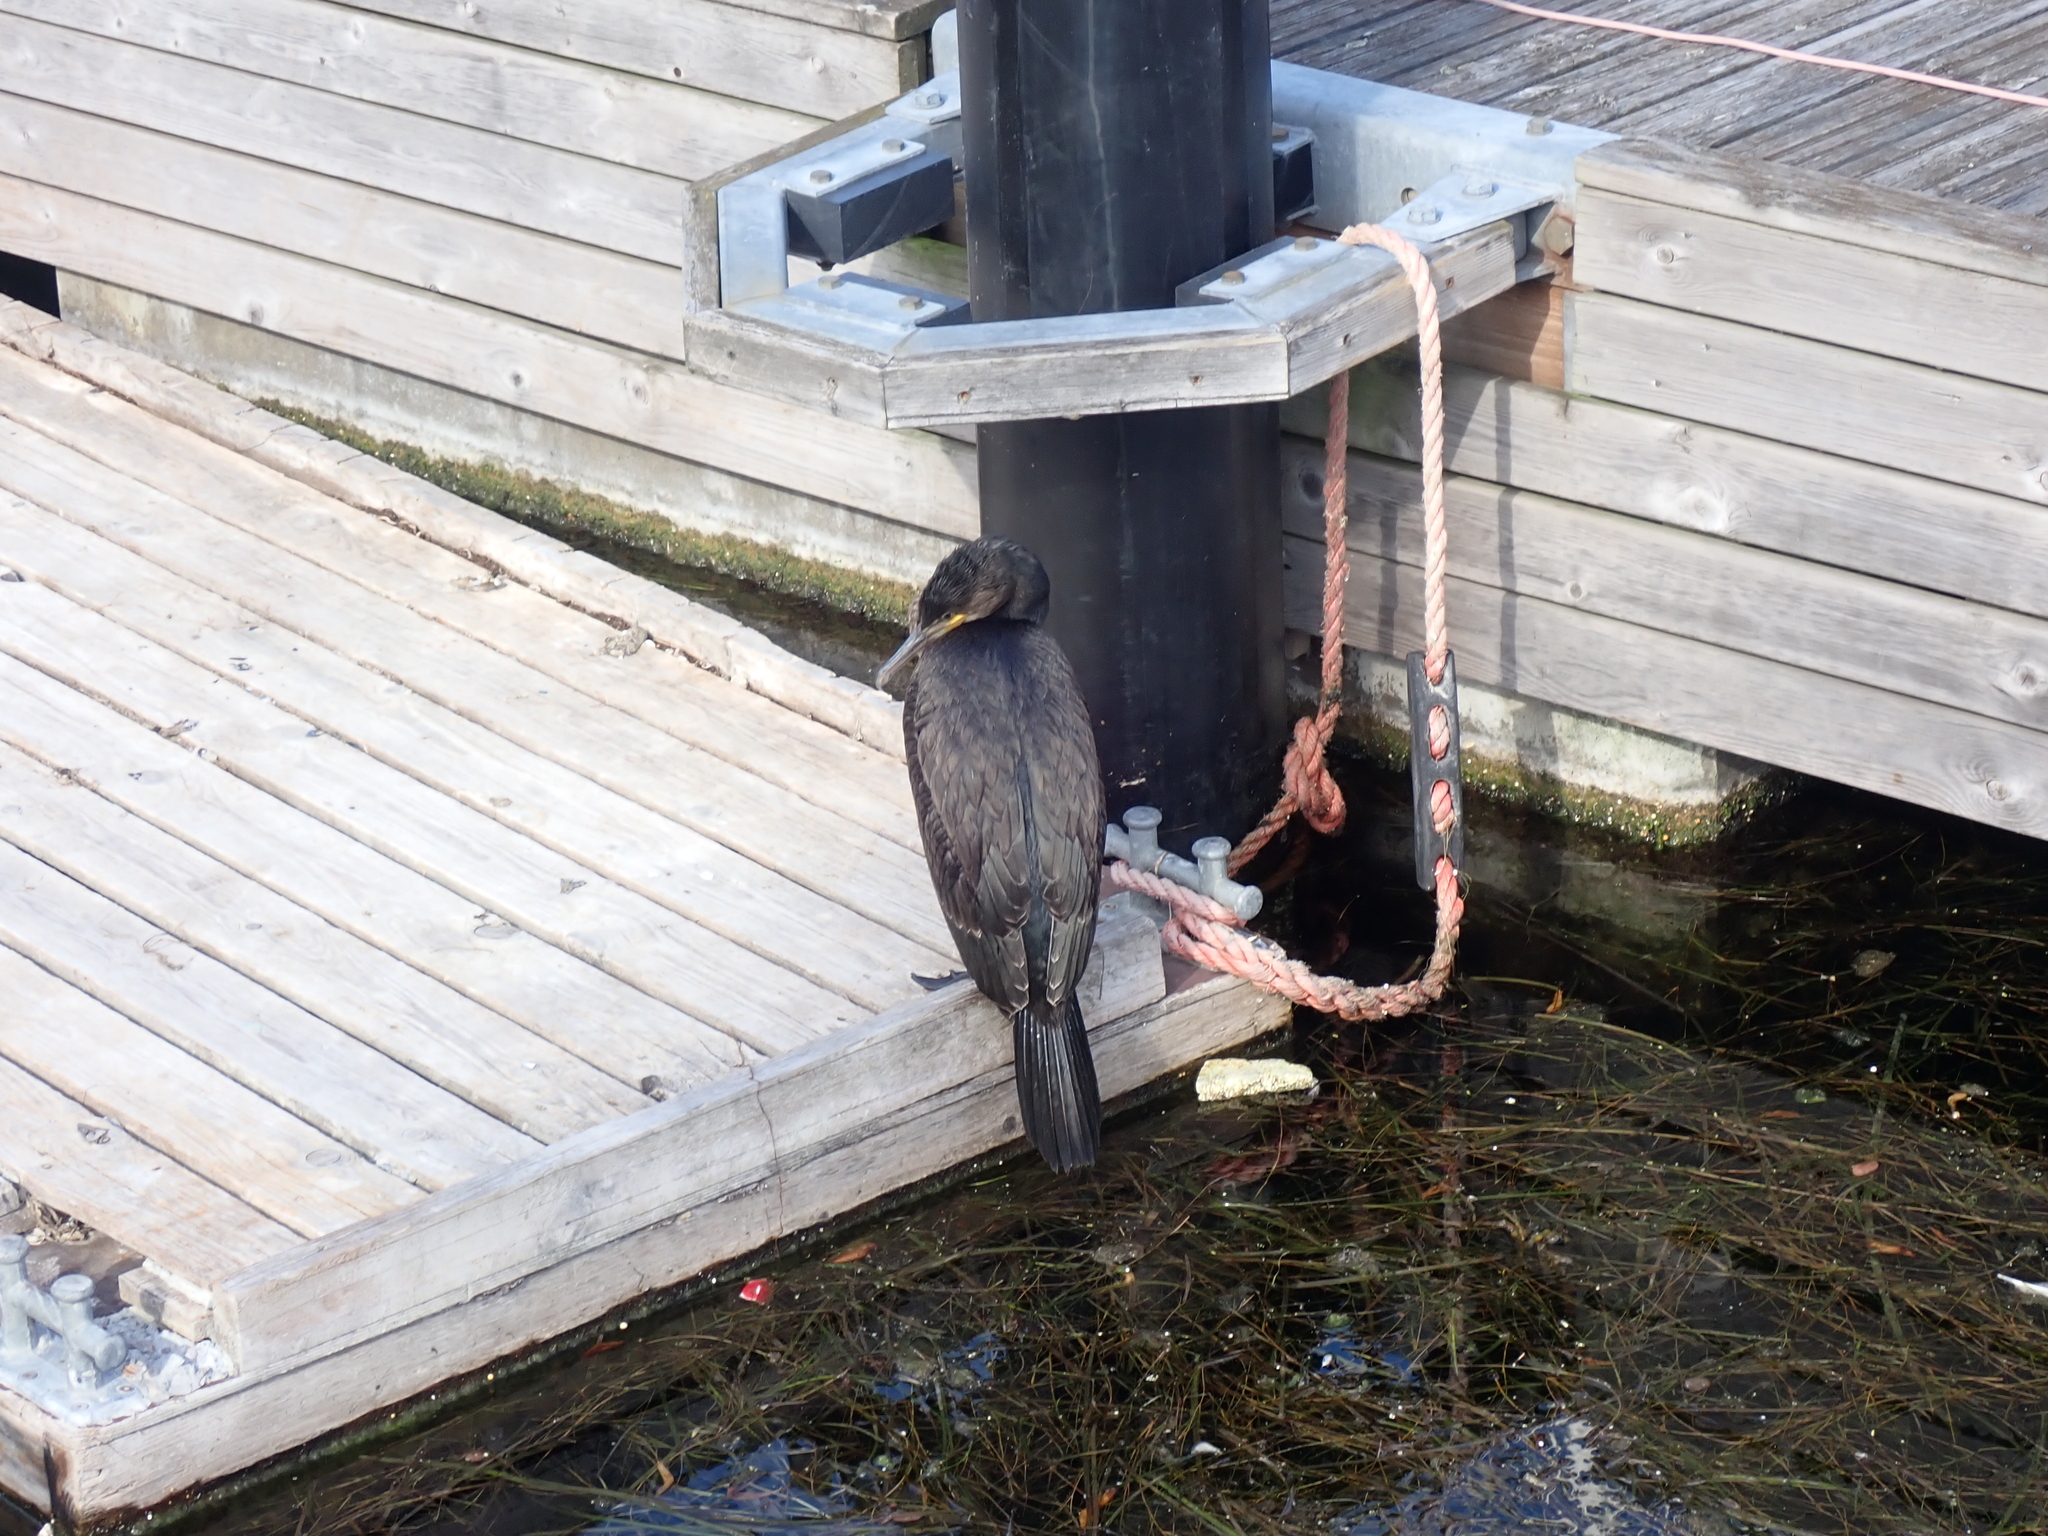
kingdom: Animalia
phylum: Chordata
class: Aves
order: Suliformes
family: Phalacrocoracidae
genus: Phalacrocorax
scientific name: Phalacrocorax carbo
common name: Great cormorant
